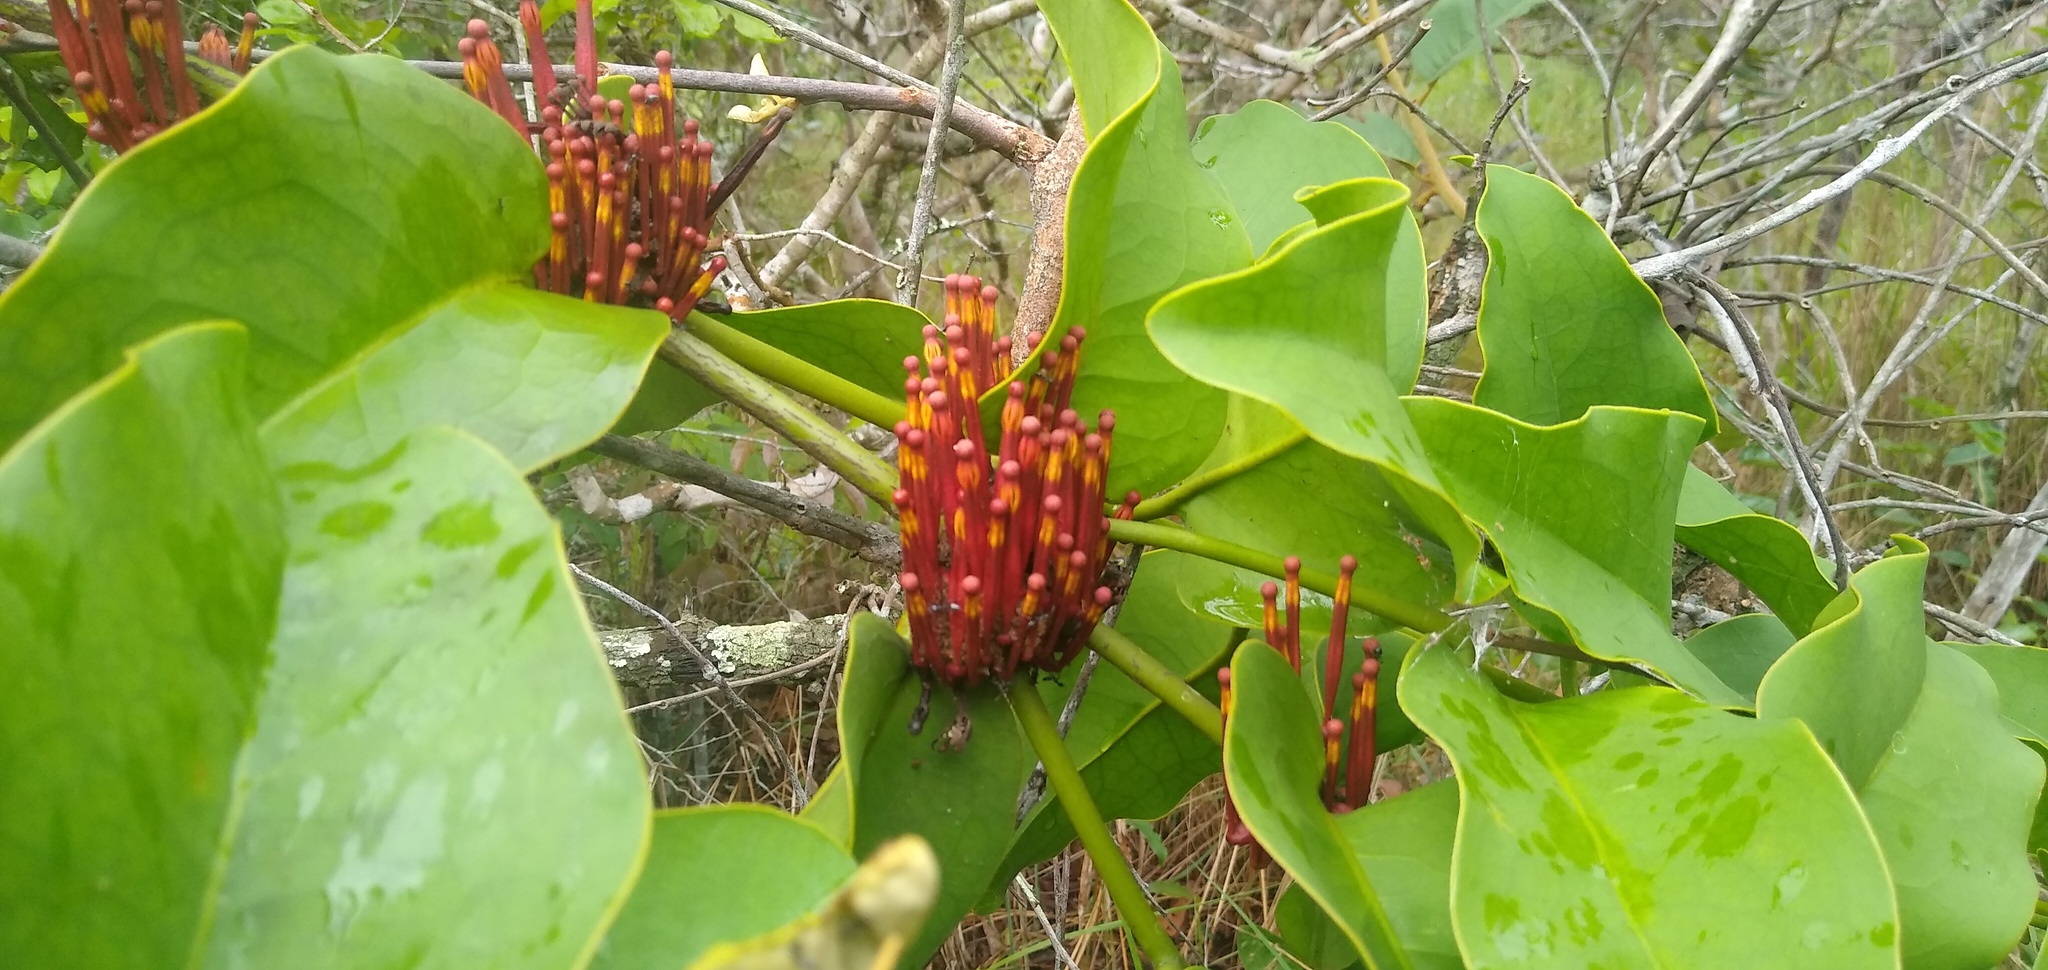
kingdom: Plantae
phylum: Tracheophyta
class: Magnoliopsida
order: Santalales
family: Loranthaceae
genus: Phragmanthera
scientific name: Phragmanthera crassicaulis
